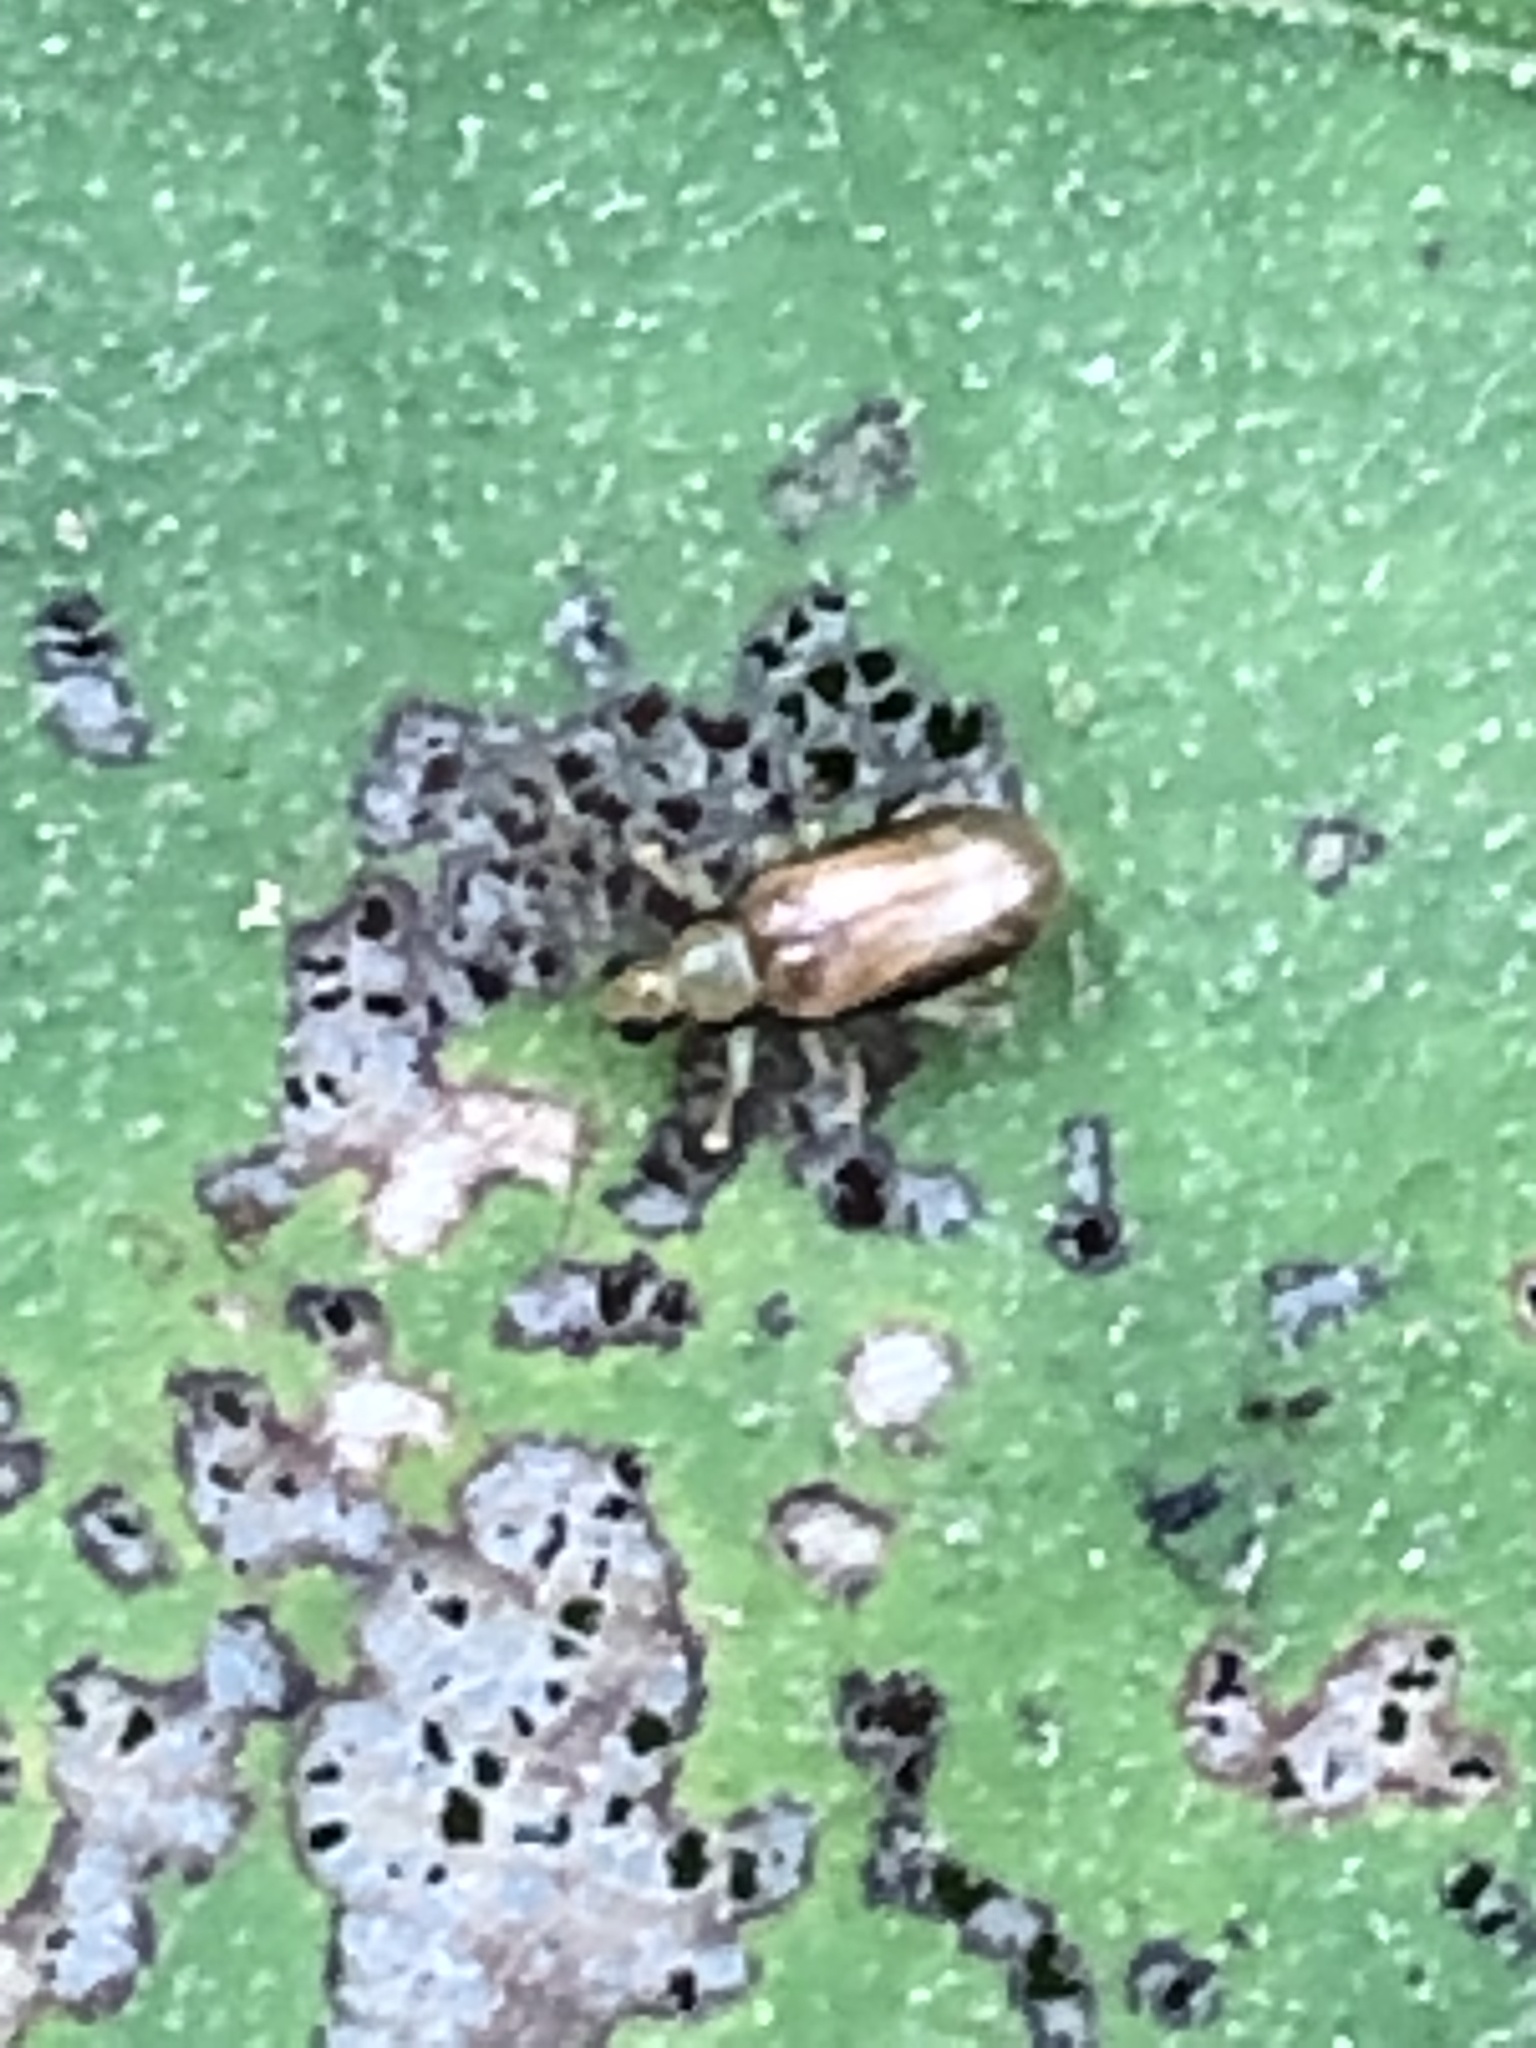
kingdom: Animalia
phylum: Arthropoda
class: Insecta
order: Coleoptera
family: Chrysomelidae
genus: Systena
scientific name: Systena marginalis
